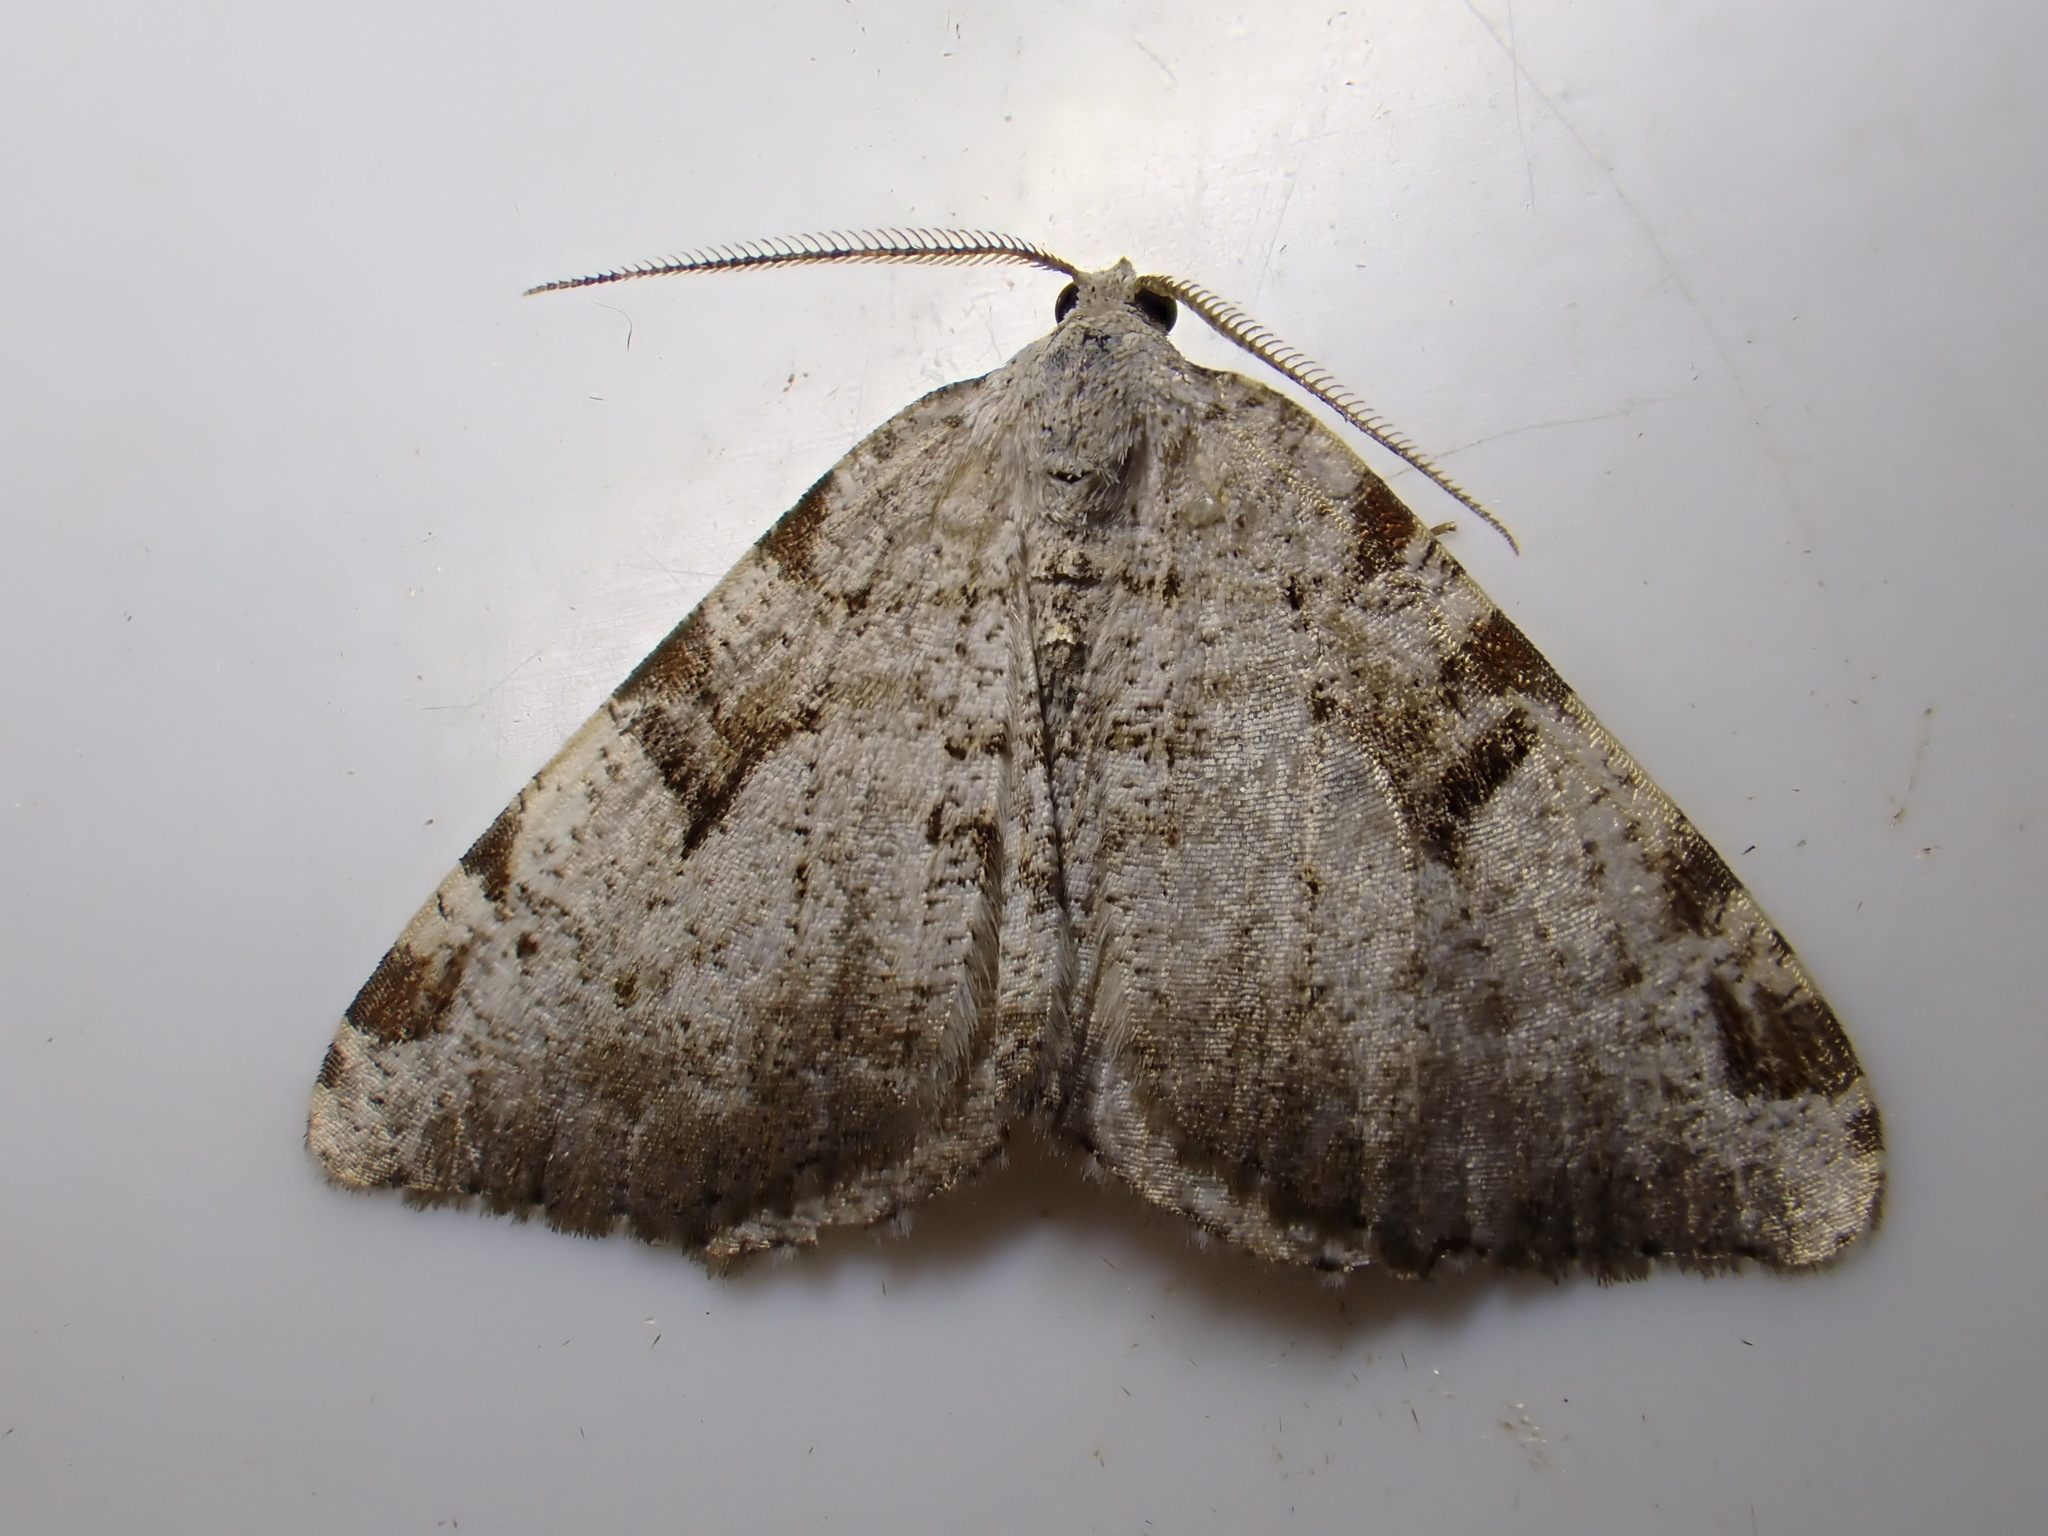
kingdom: Animalia
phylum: Arthropoda
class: Insecta
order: Lepidoptera
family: Geometridae
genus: Macaria
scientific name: Macaria wauaria
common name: V-moth
